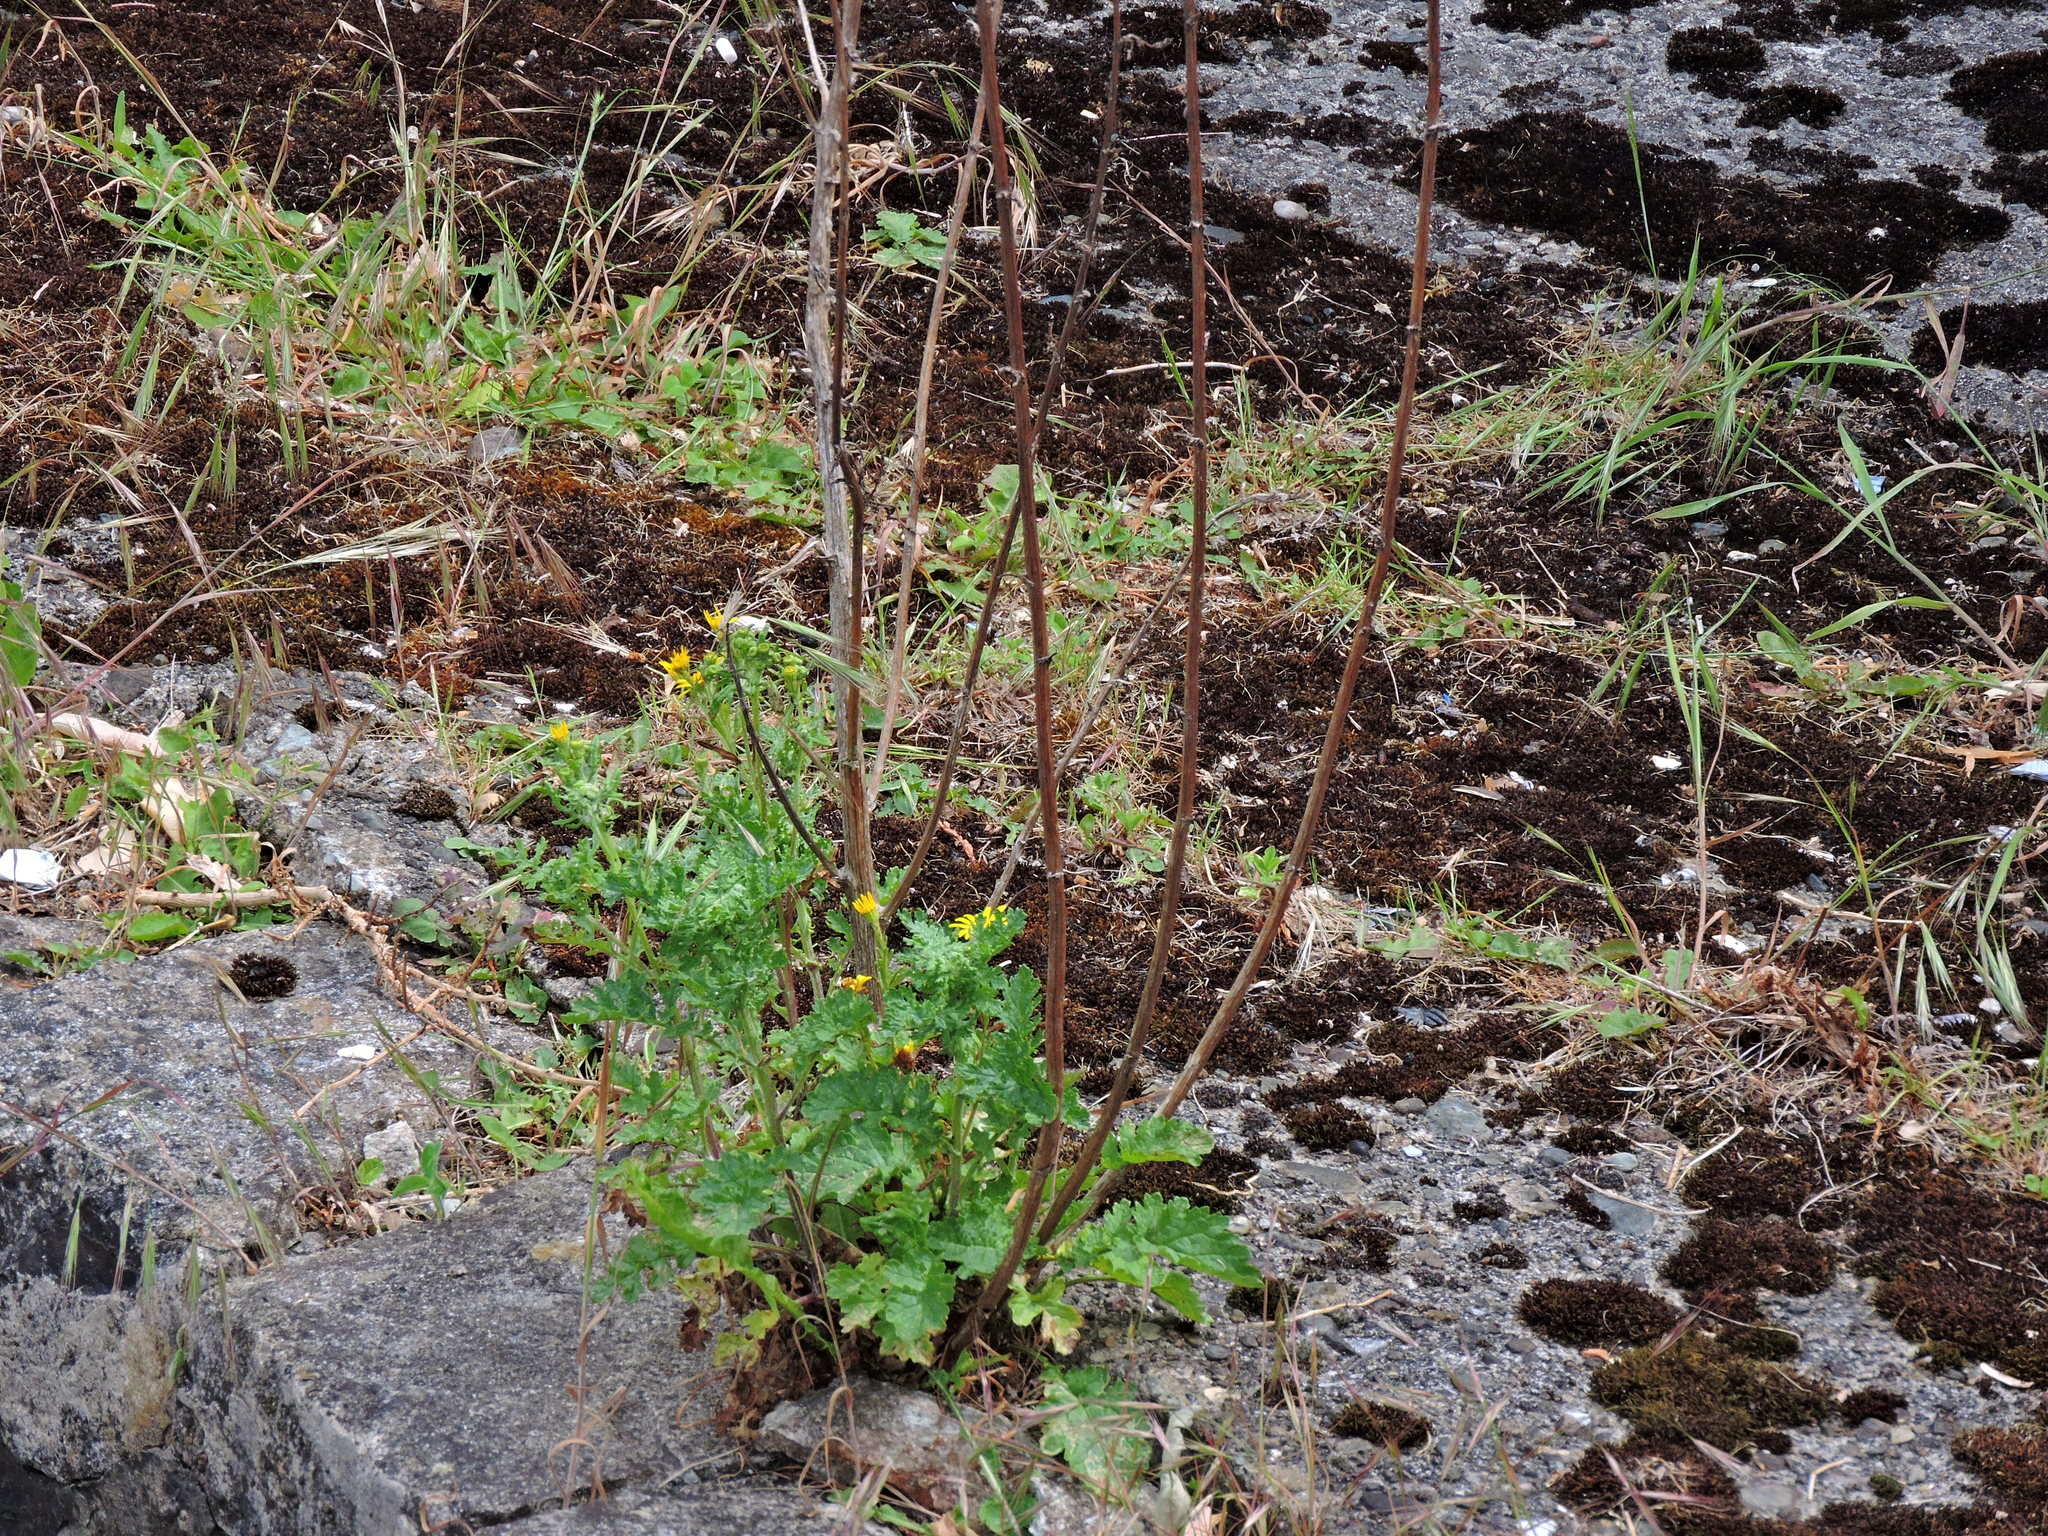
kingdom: Plantae
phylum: Tracheophyta
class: Magnoliopsida
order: Asterales
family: Asteraceae
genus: Jacobaea
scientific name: Jacobaea vulgaris
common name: Stinking willie
